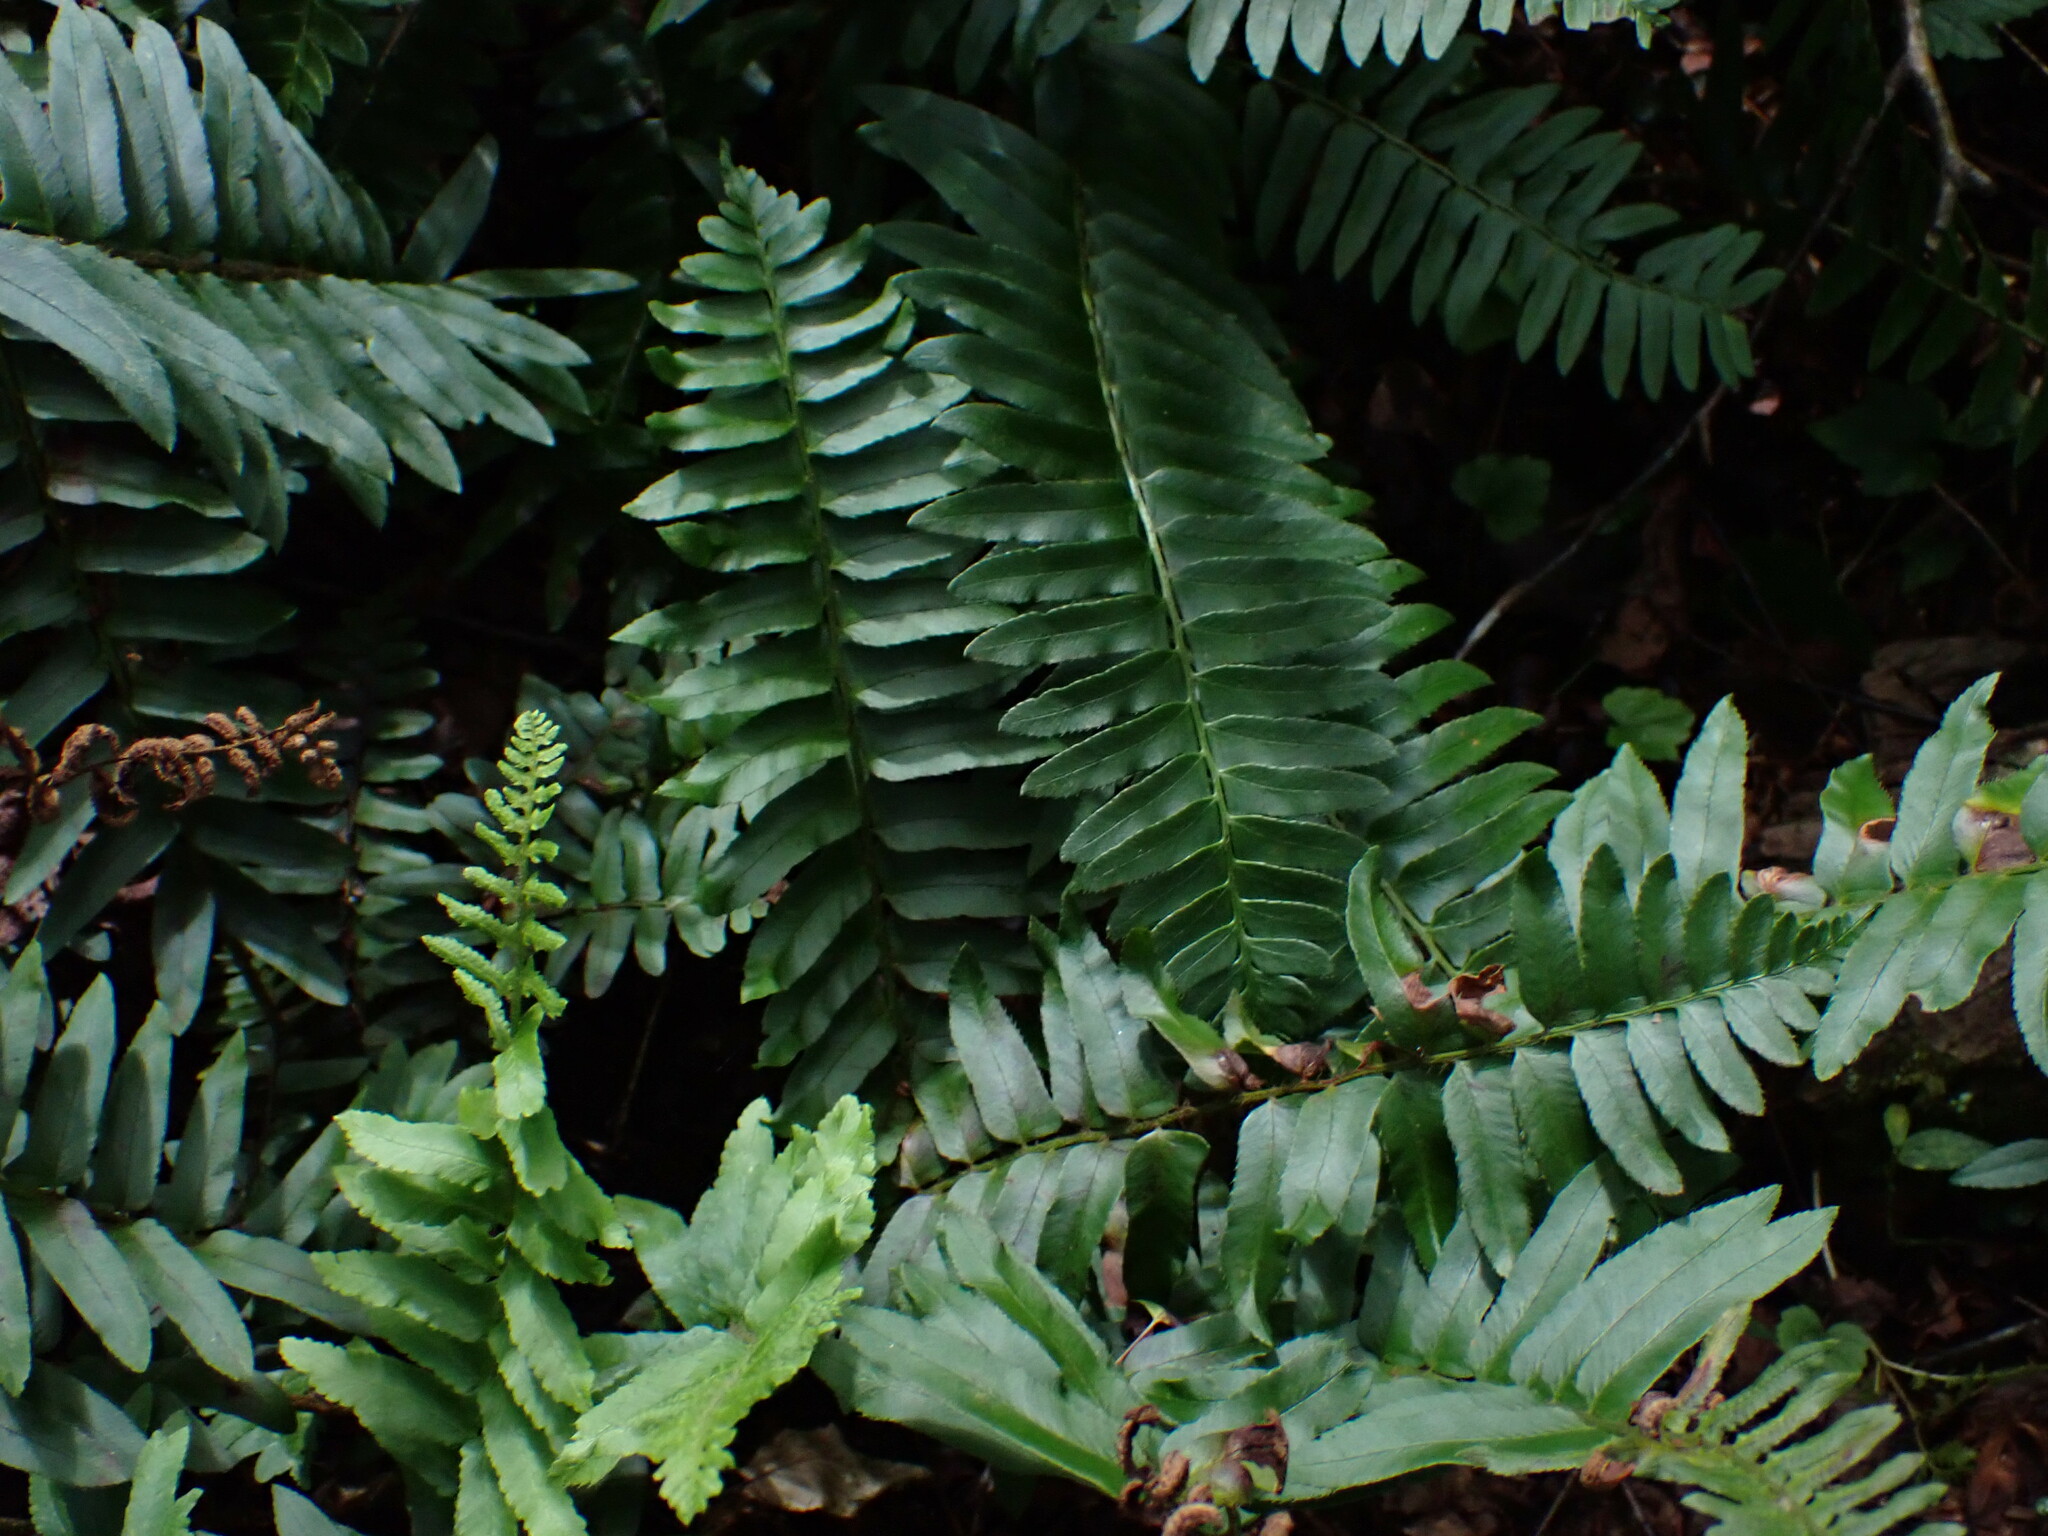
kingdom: Plantae
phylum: Tracheophyta
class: Polypodiopsida
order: Polypodiales
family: Dryopteridaceae
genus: Polystichum
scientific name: Polystichum acrostichoides
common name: Christmas fern
